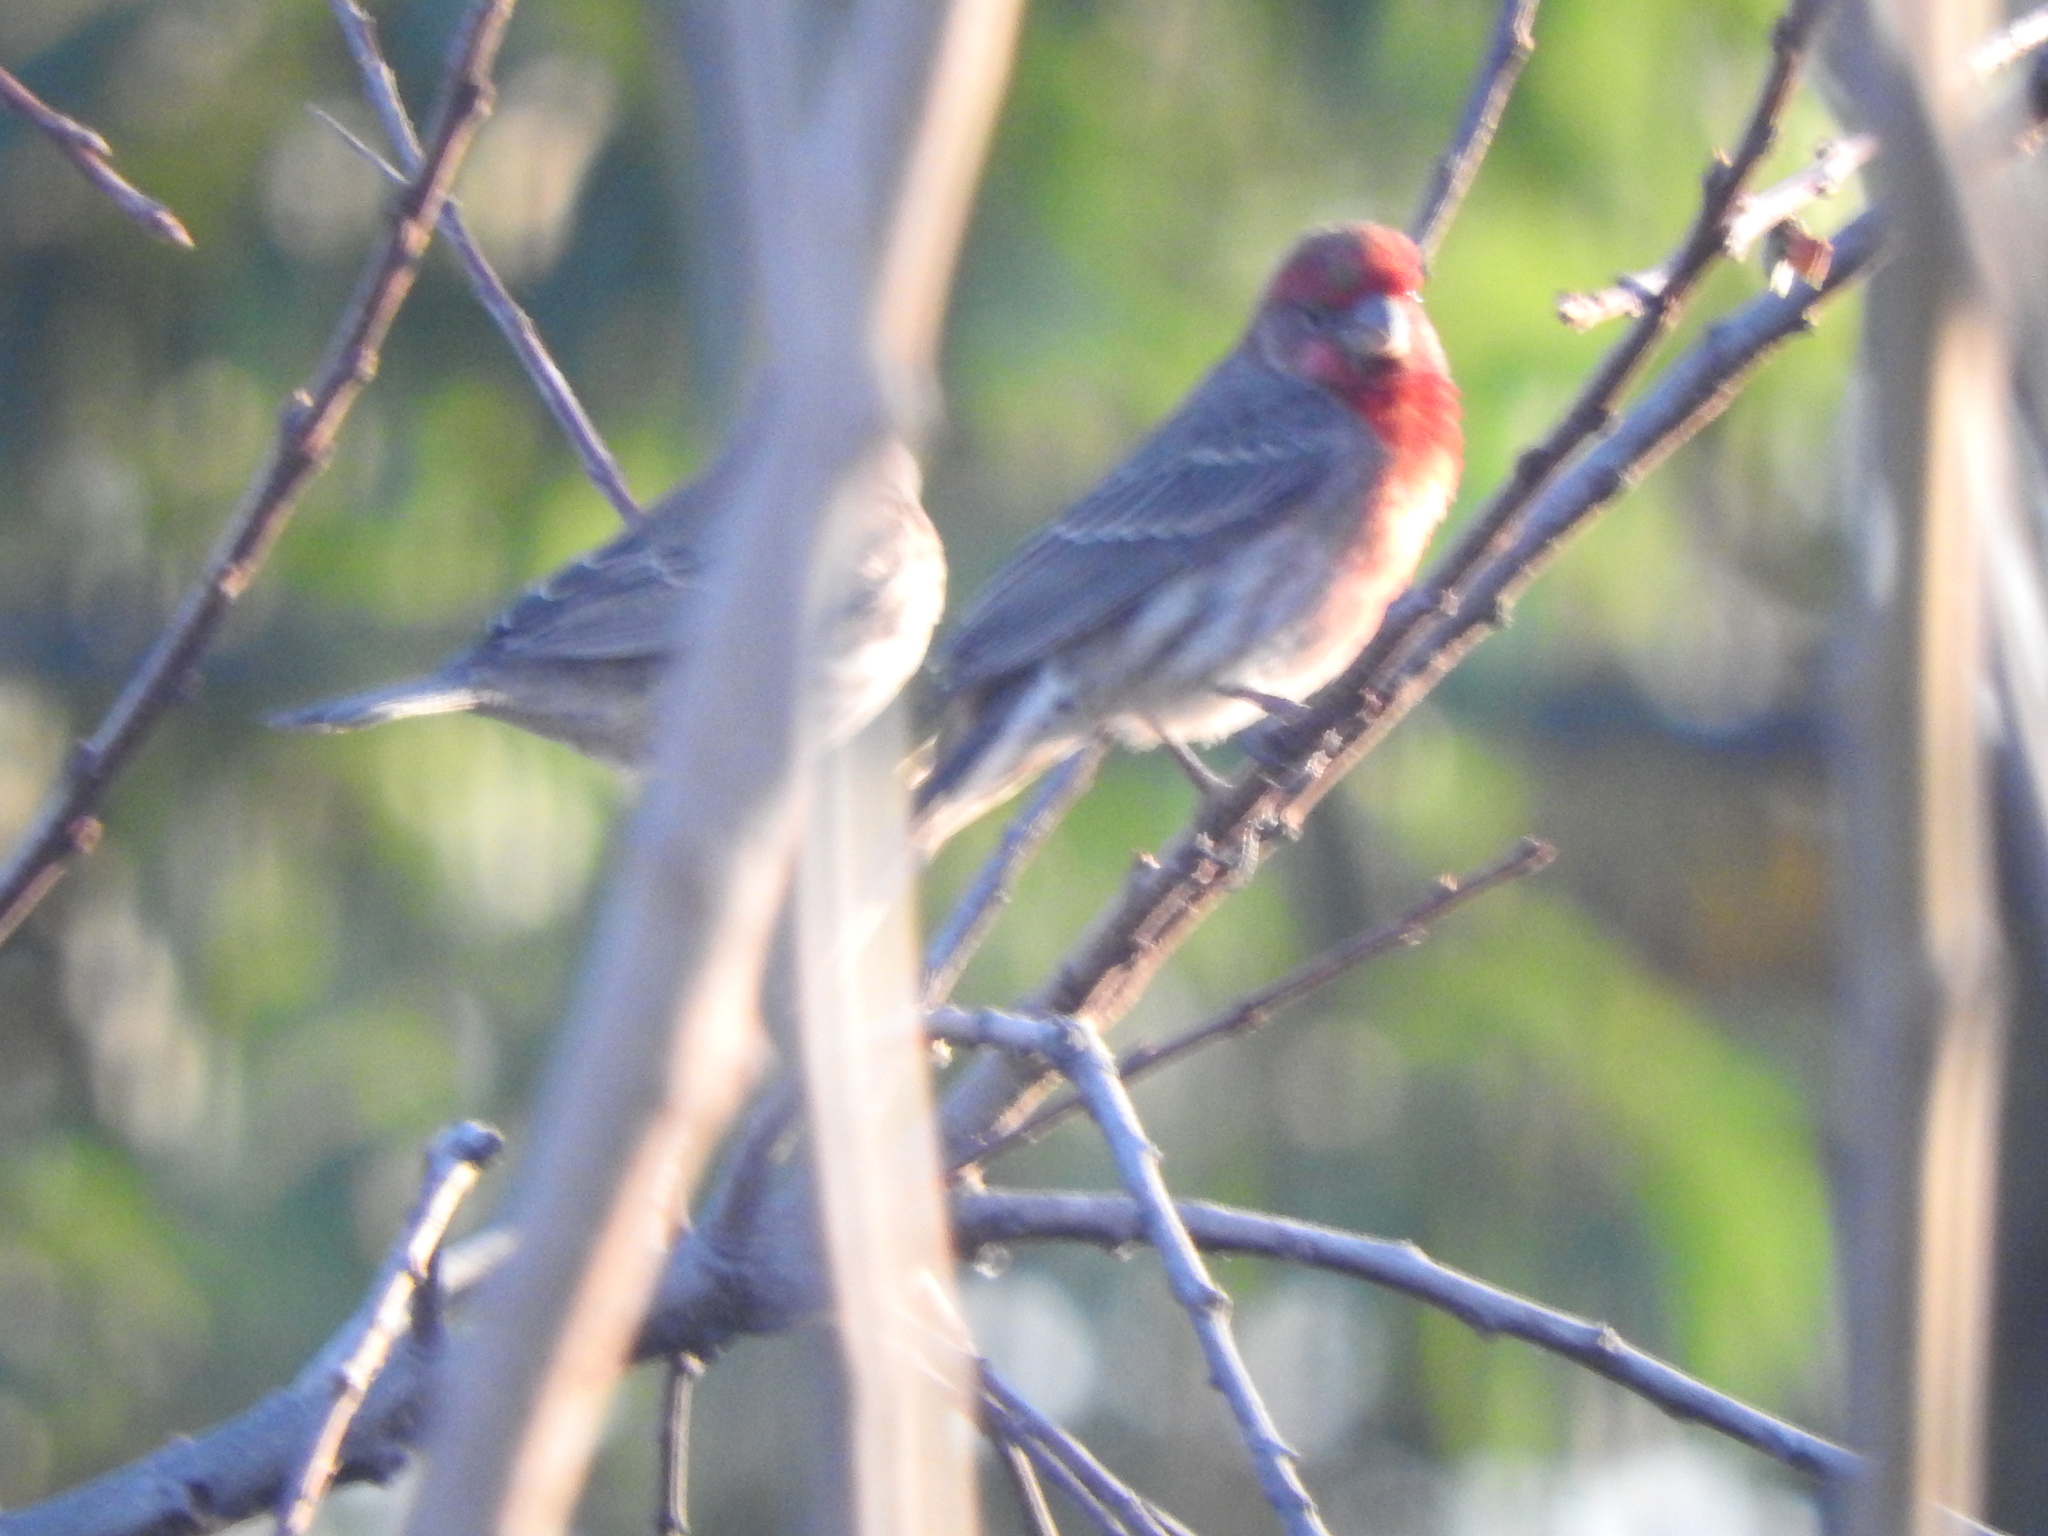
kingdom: Animalia
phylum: Chordata
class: Aves
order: Passeriformes
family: Fringillidae
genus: Haemorhous
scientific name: Haemorhous mexicanus
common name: House finch
